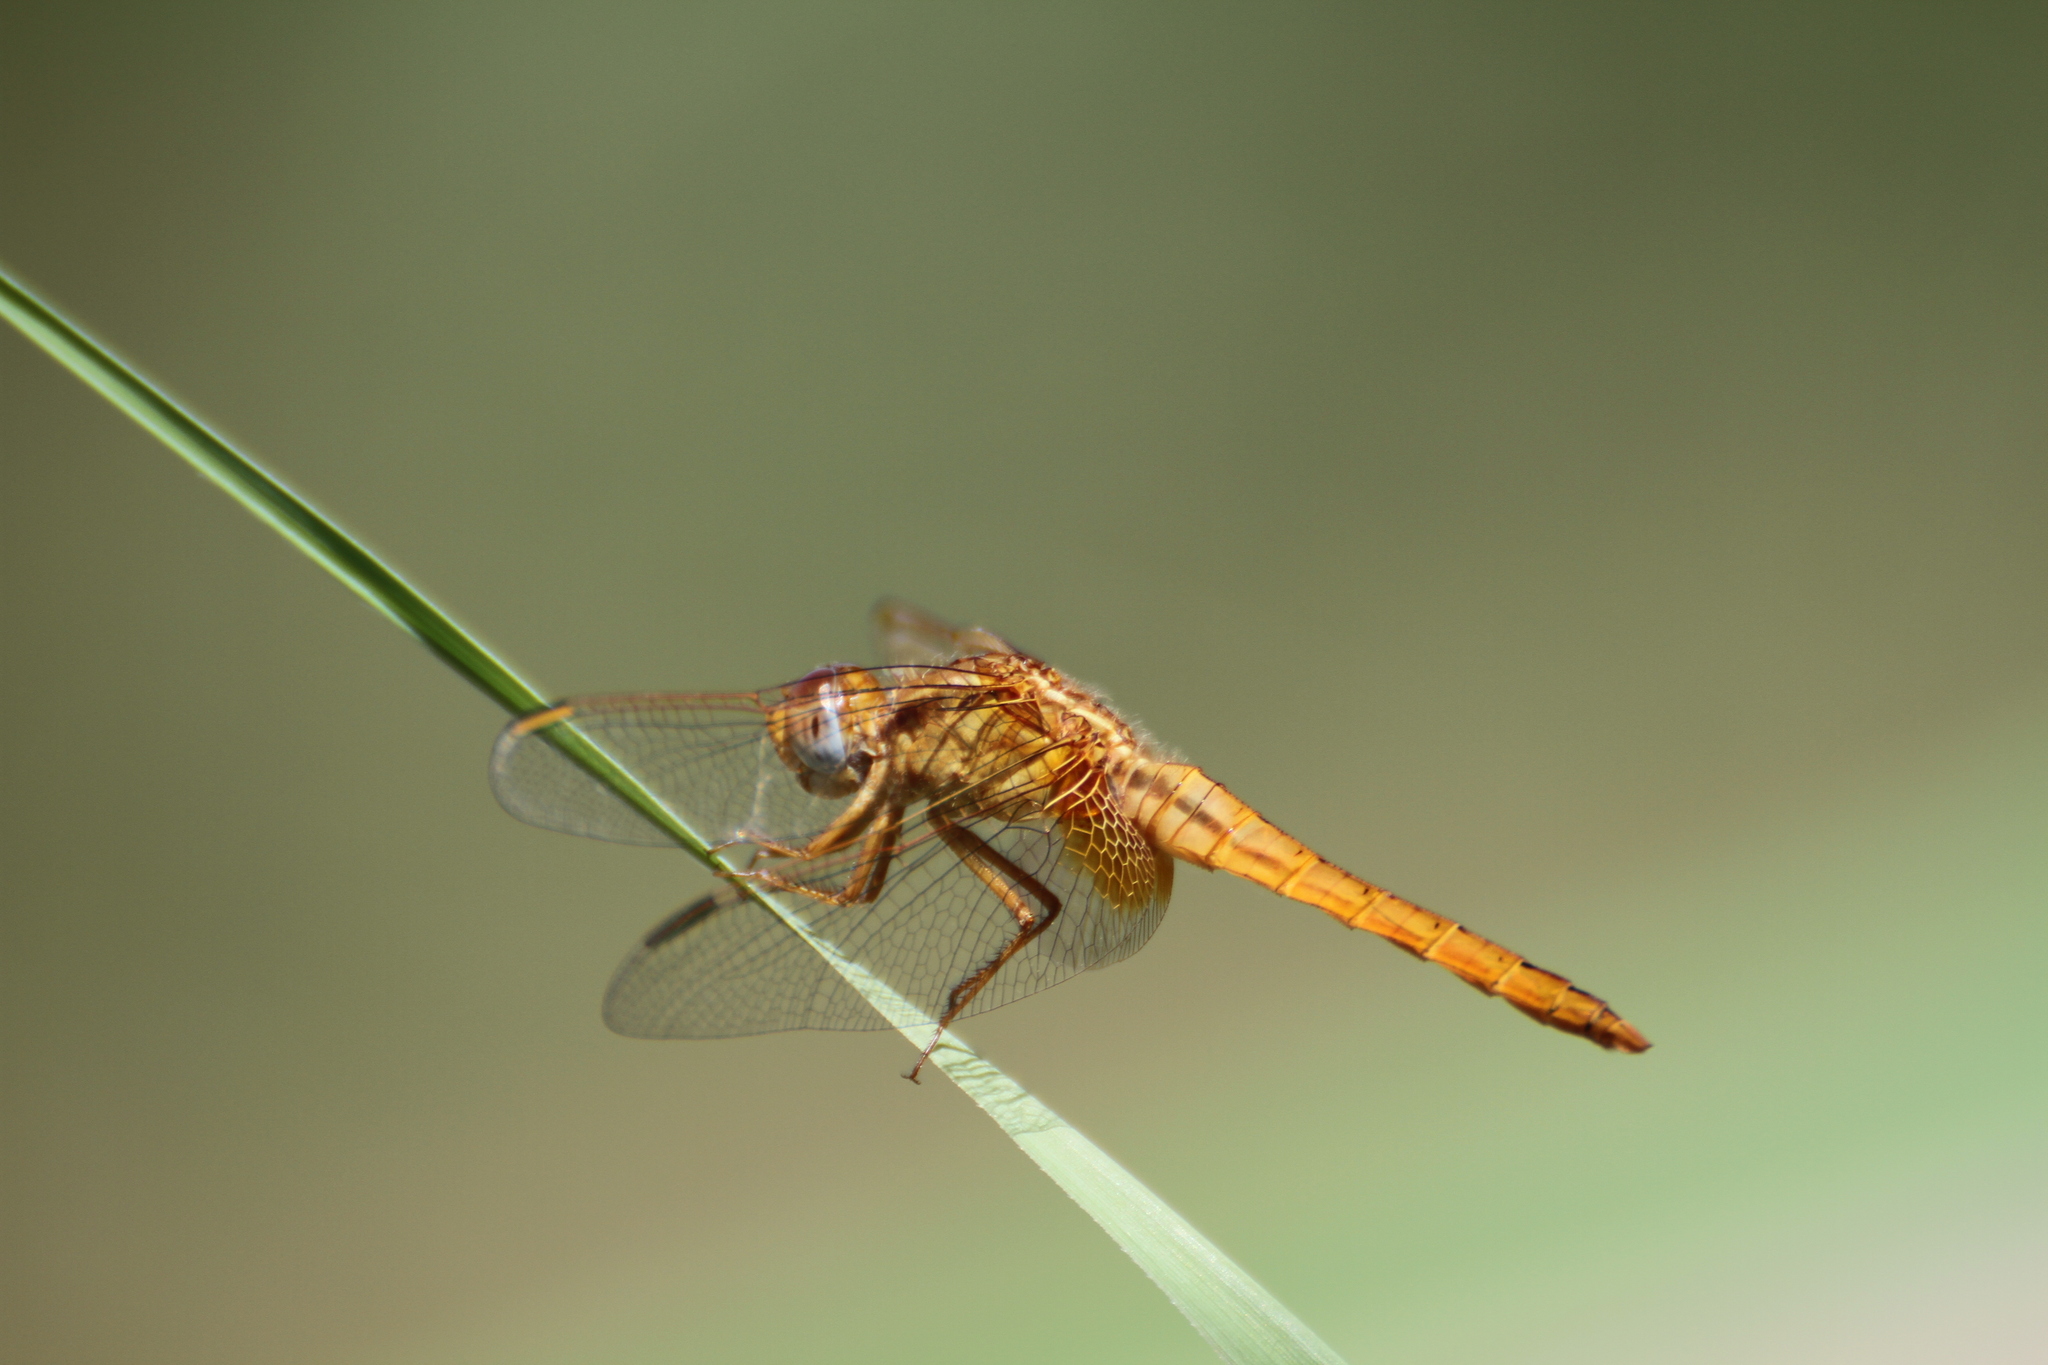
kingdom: Animalia
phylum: Arthropoda
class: Insecta
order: Odonata
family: Libellulidae
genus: Crocothemis
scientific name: Crocothemis erythraea
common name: Scarlet dragonfly
